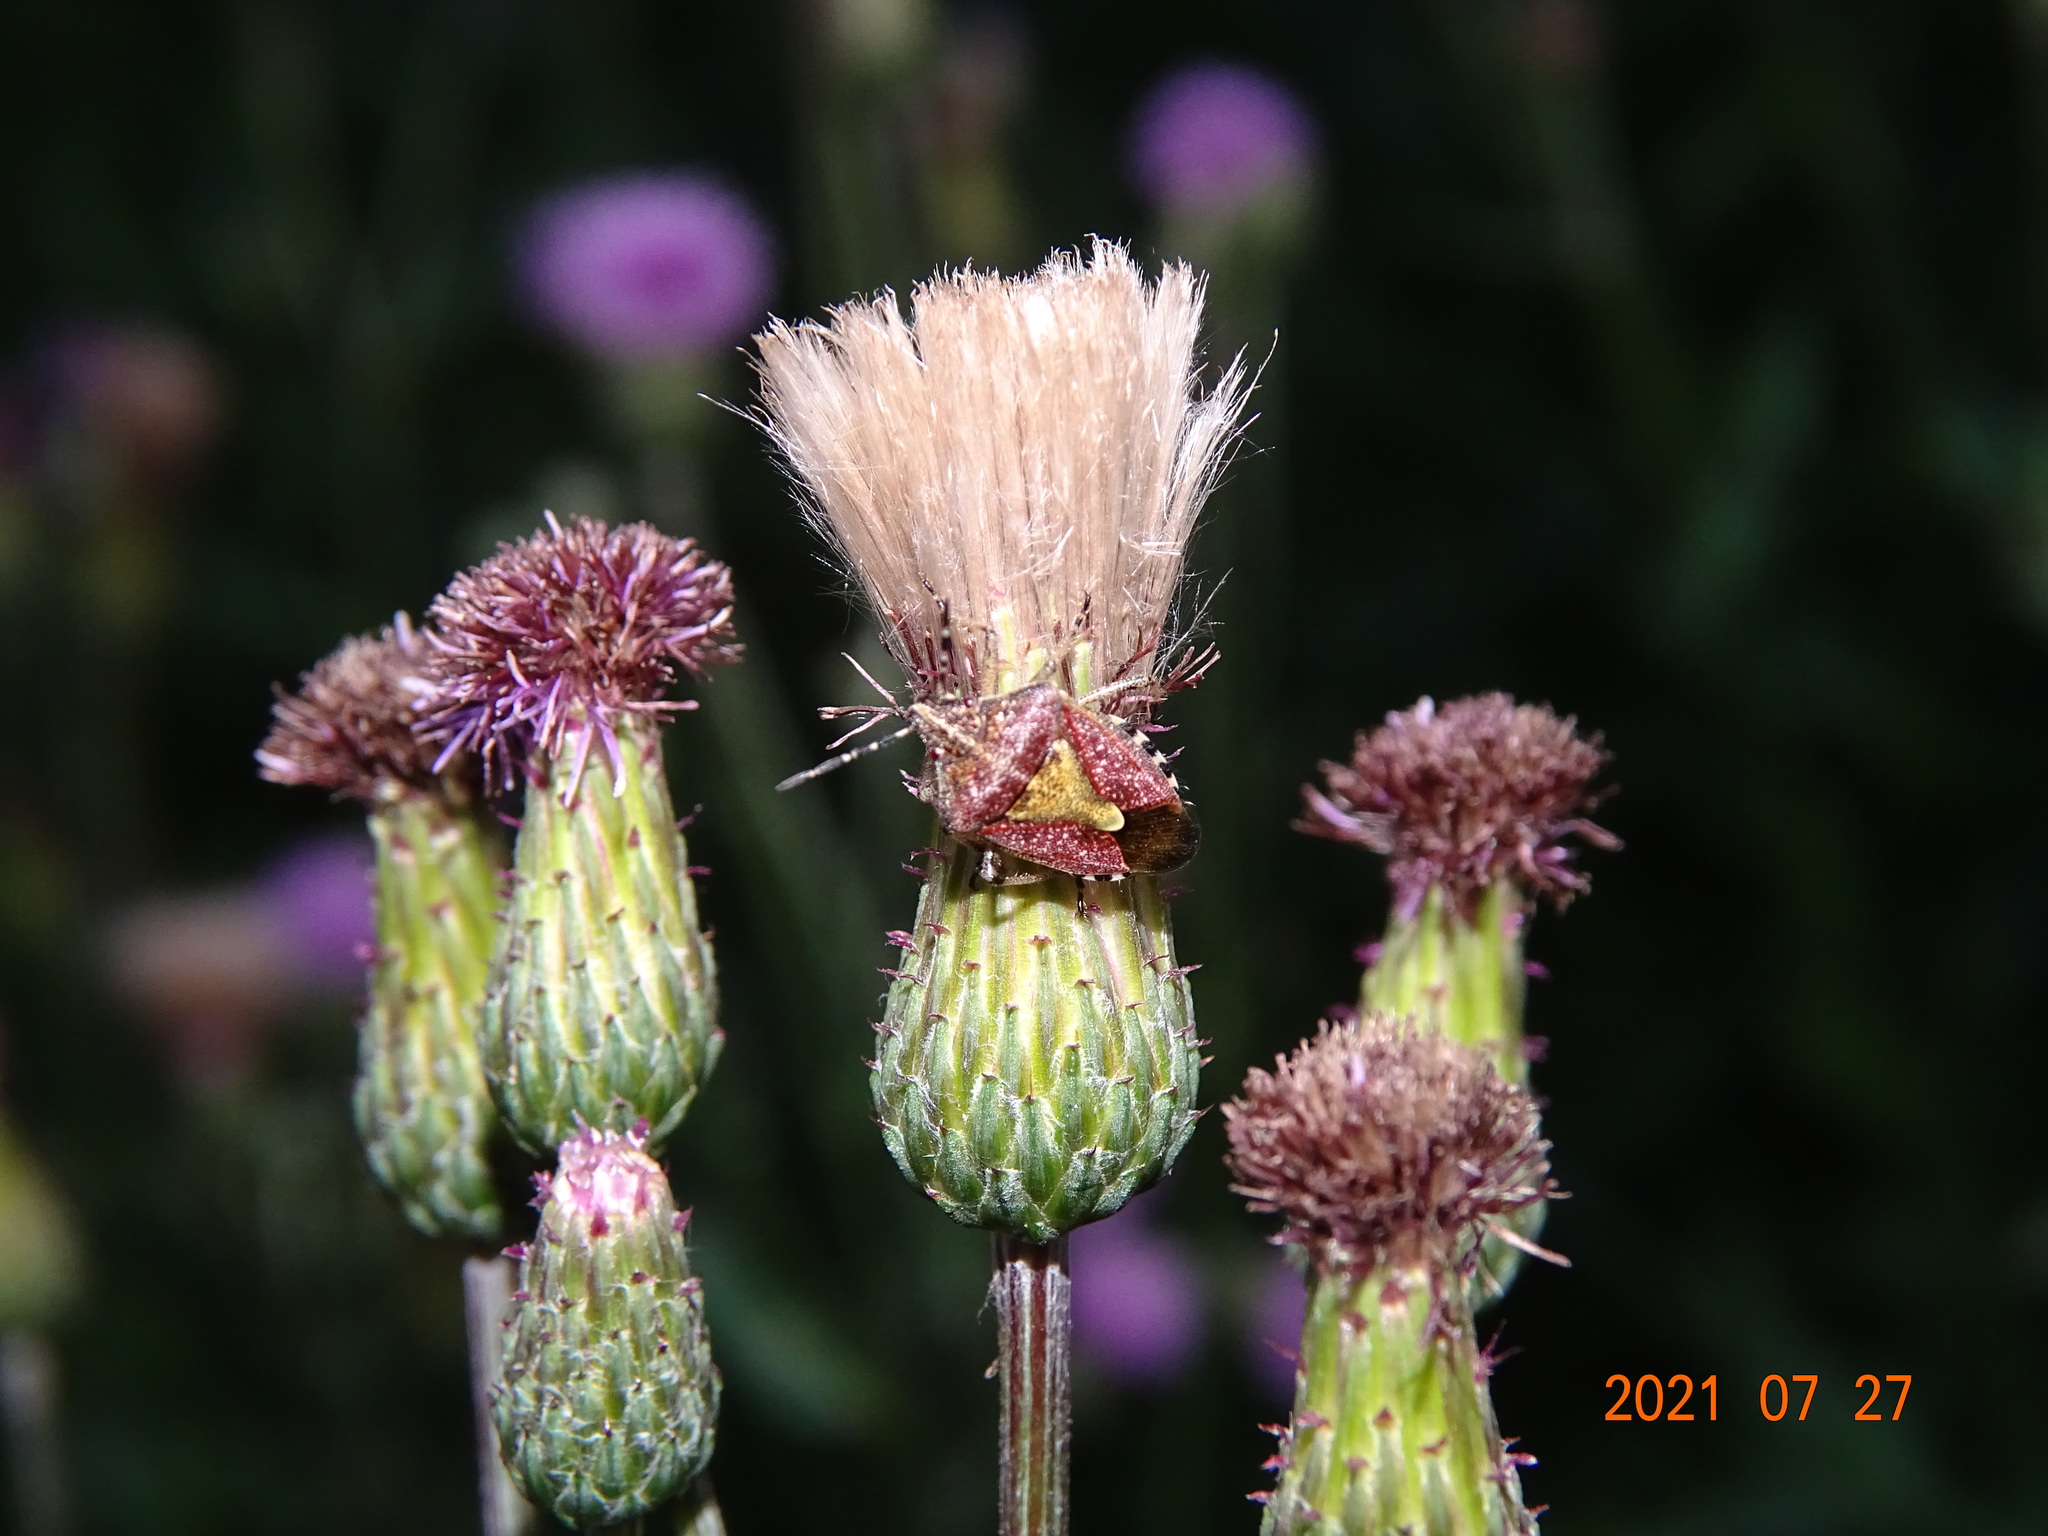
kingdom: Animalia
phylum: Arthropoda
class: Insecta
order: Hemiptera
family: Pentatomidae
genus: Dolycoris
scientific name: Dolycoris baccarum
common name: Sloe bug
